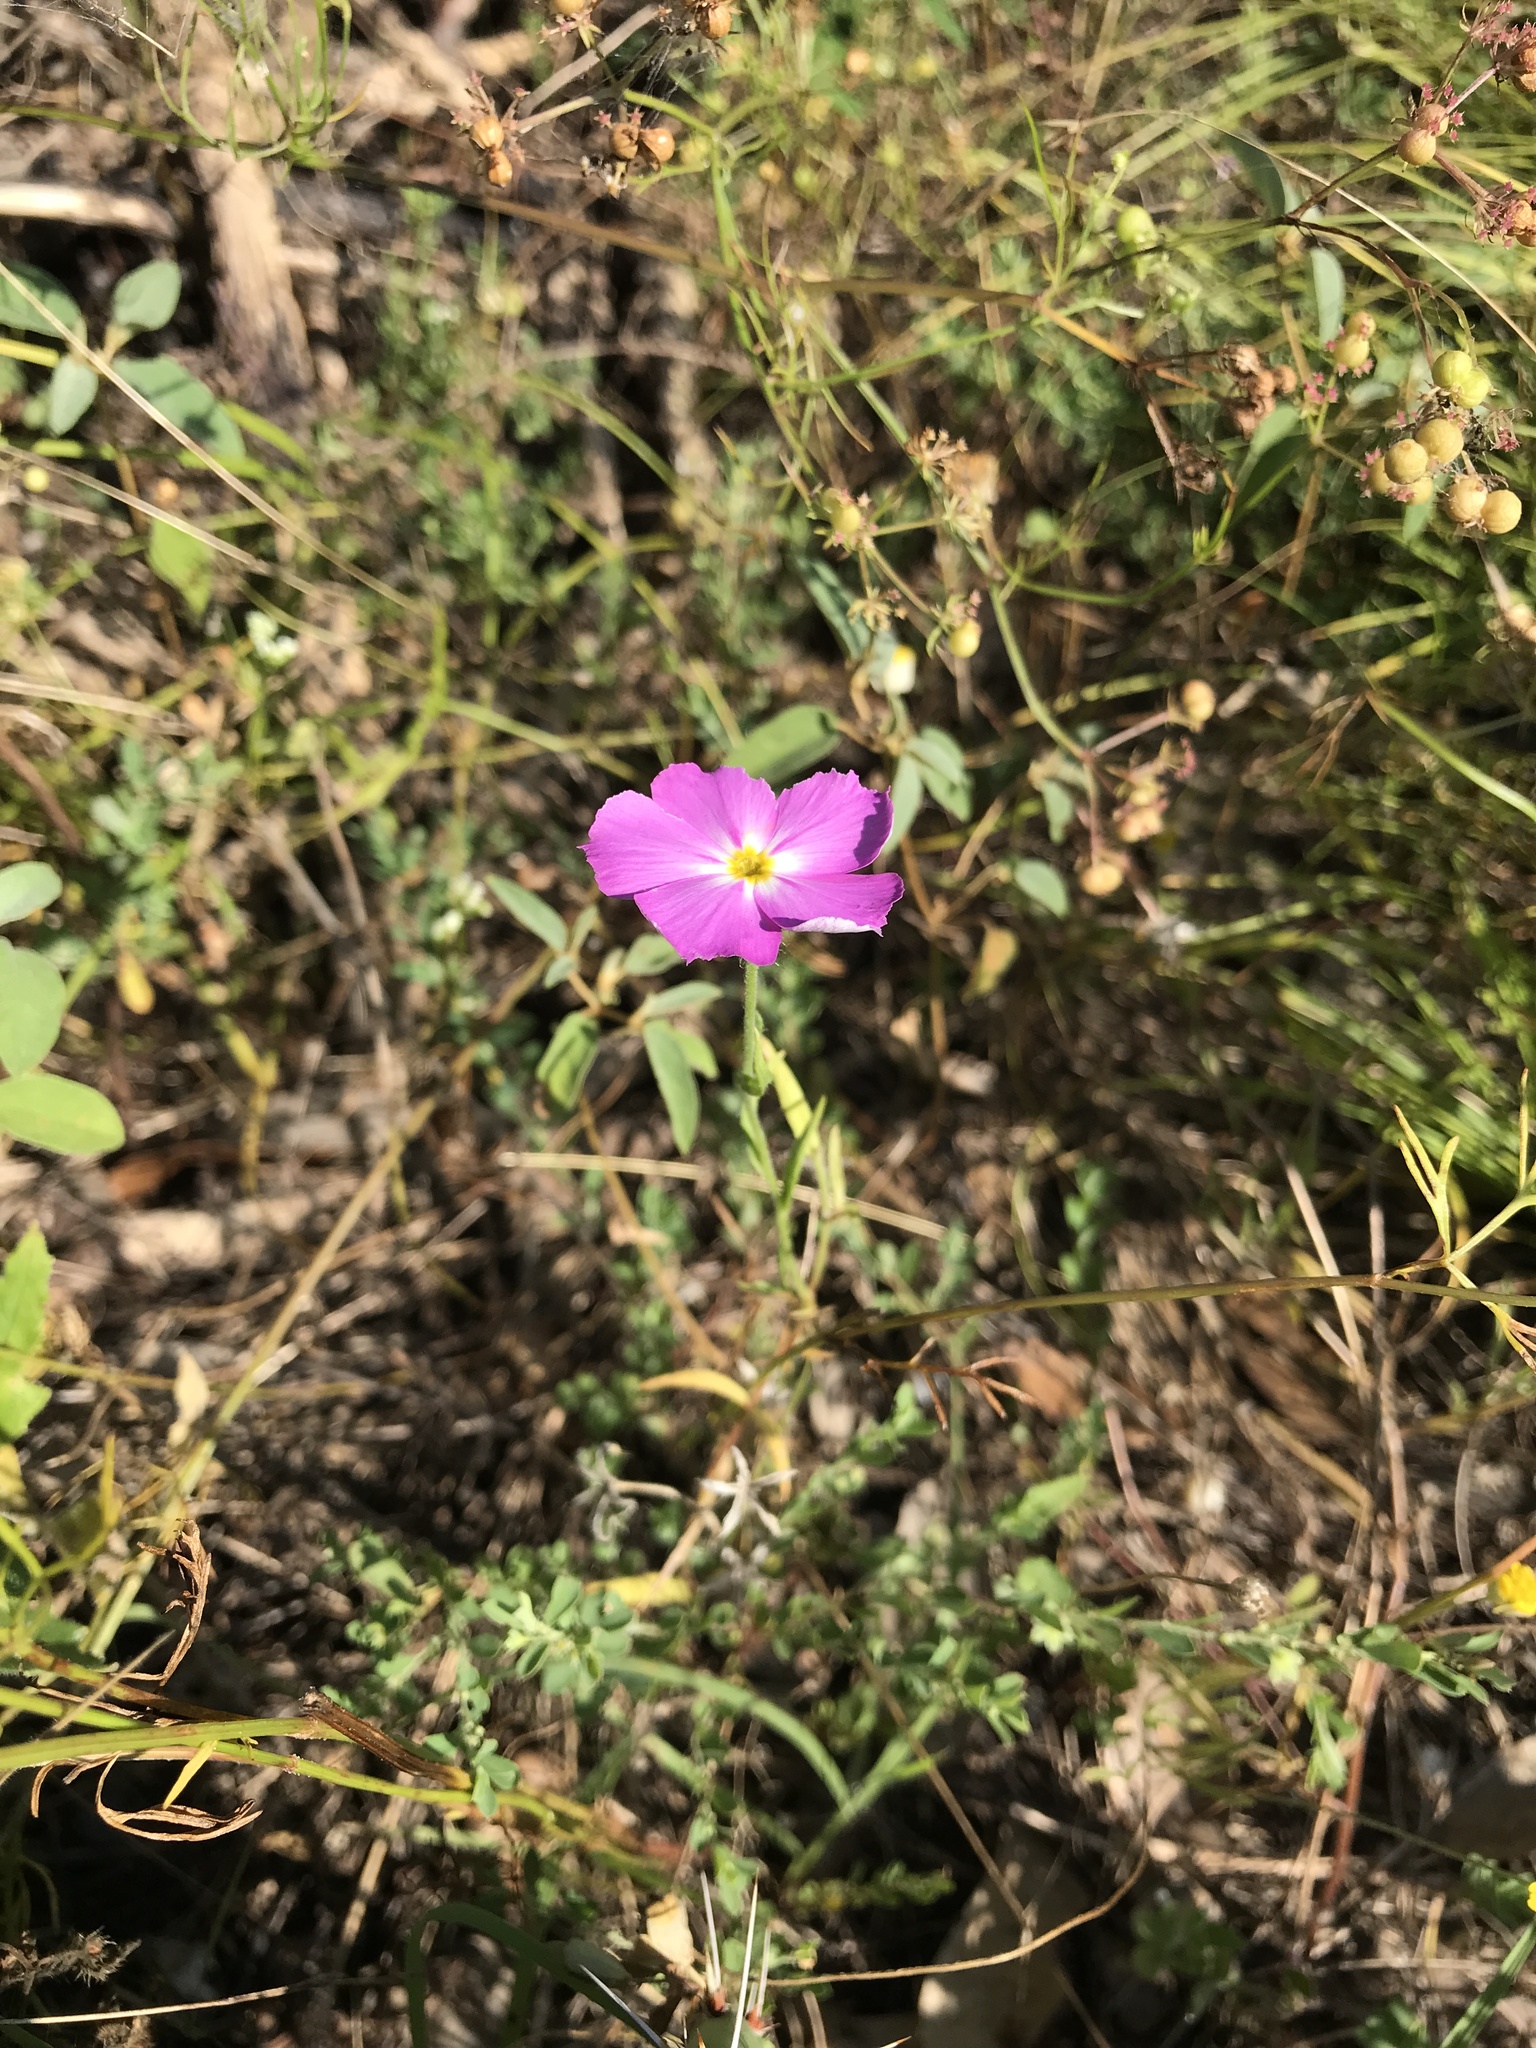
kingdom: Plantae
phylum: Tracheophyta
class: Magnoliopsida
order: Ericales
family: Polemoniaceae
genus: Phlox
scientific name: Phlox roemeriana
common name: Roemer's phlox
